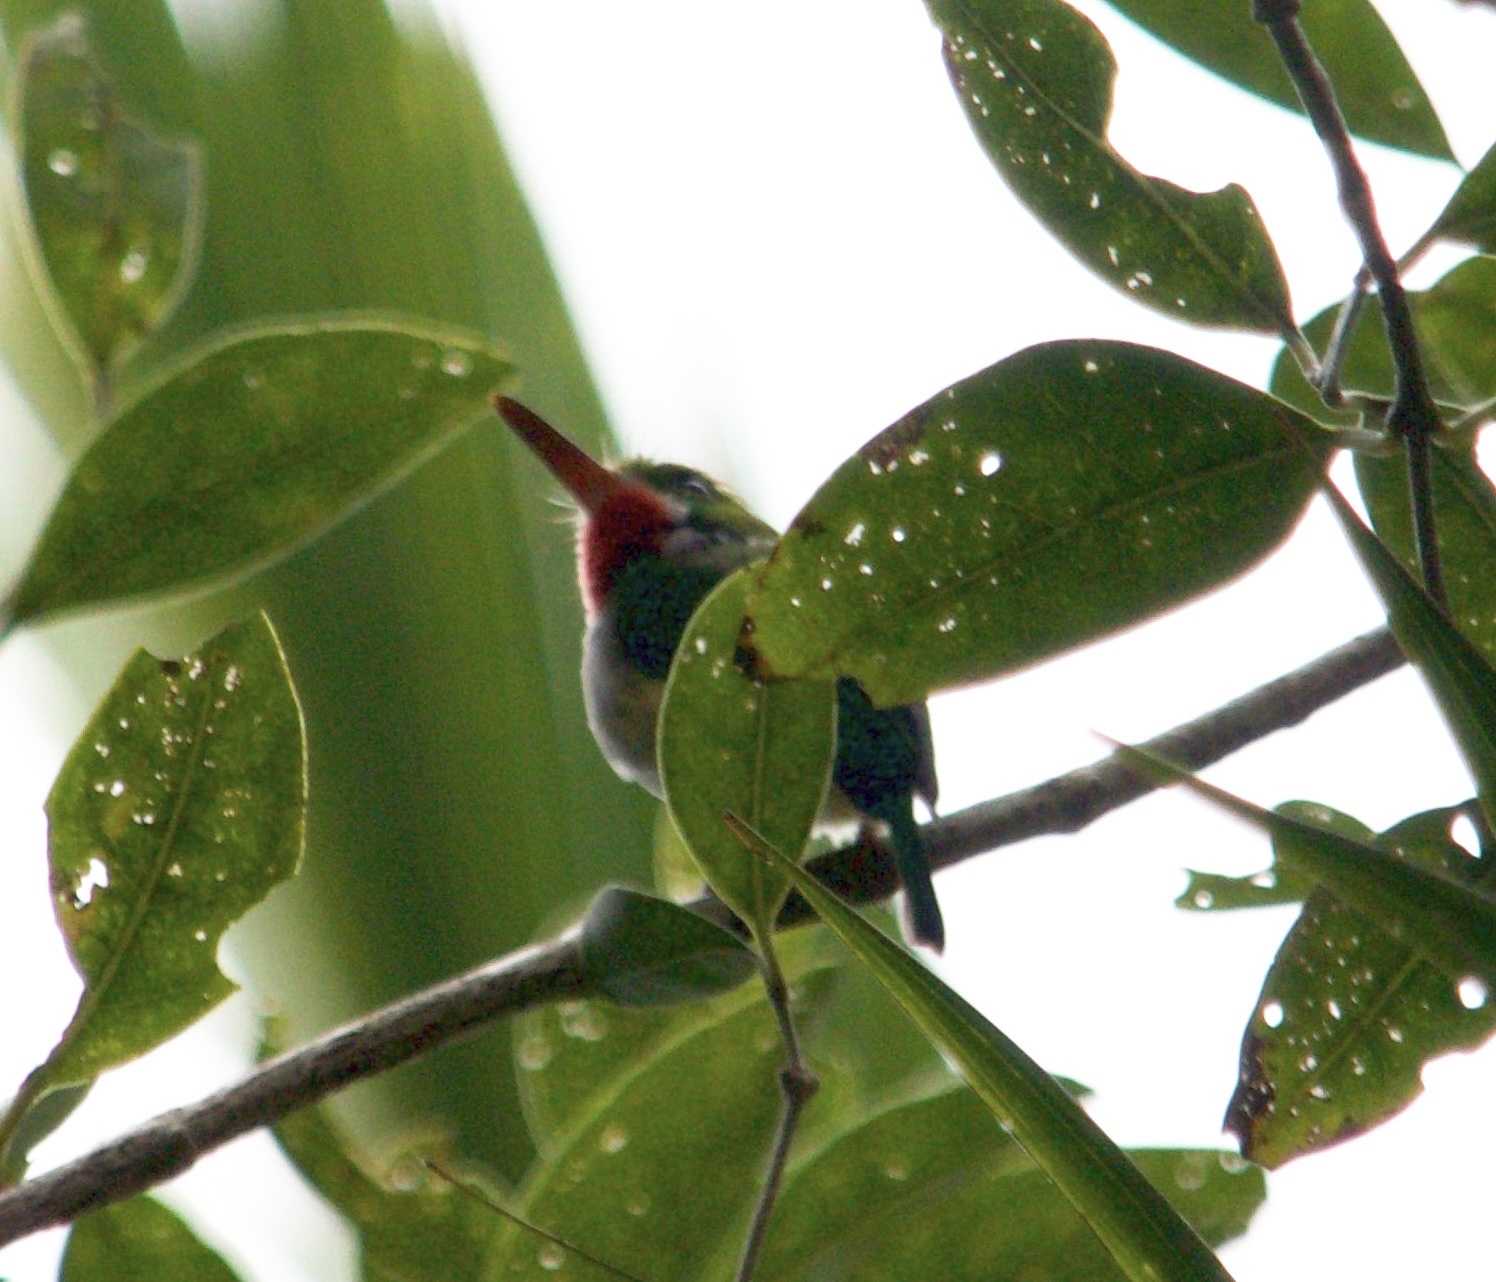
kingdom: Animalia
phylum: Chordata
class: Aves
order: Coraciiformes
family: Todidae
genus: Todus
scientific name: Todus mexicanus
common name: Puerto rican tody
